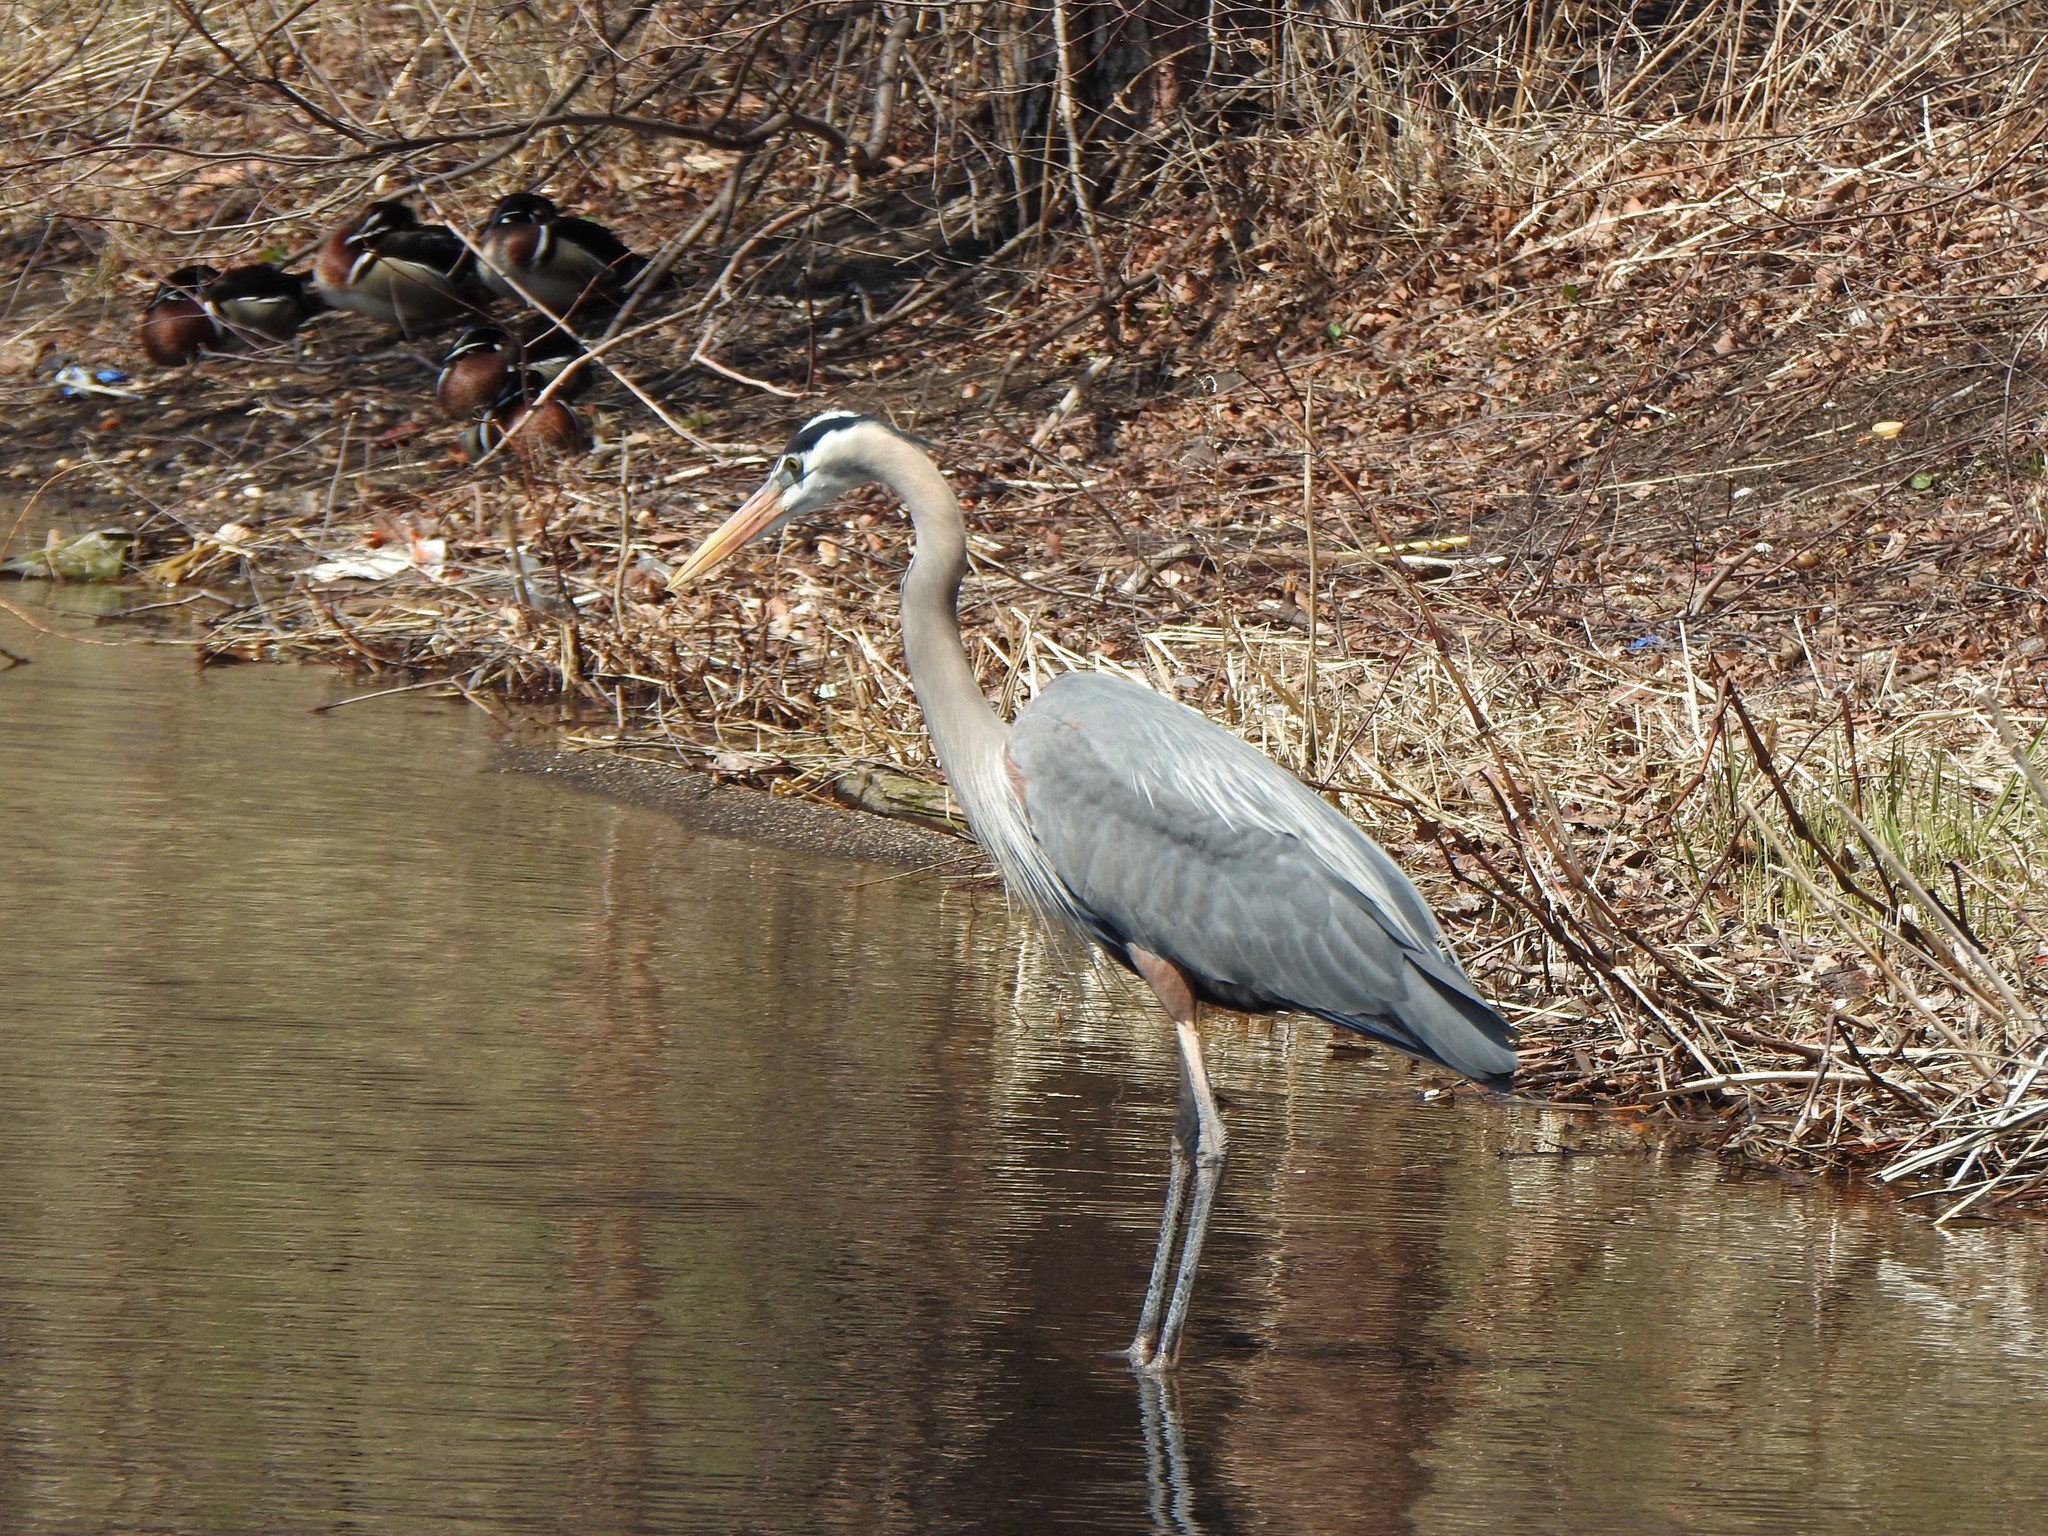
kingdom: Animalia
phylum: Chordata
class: Aves
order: Pelecaniformes
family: Ardeidae
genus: Ardea
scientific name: Ardea herodias
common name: Great blue heron
